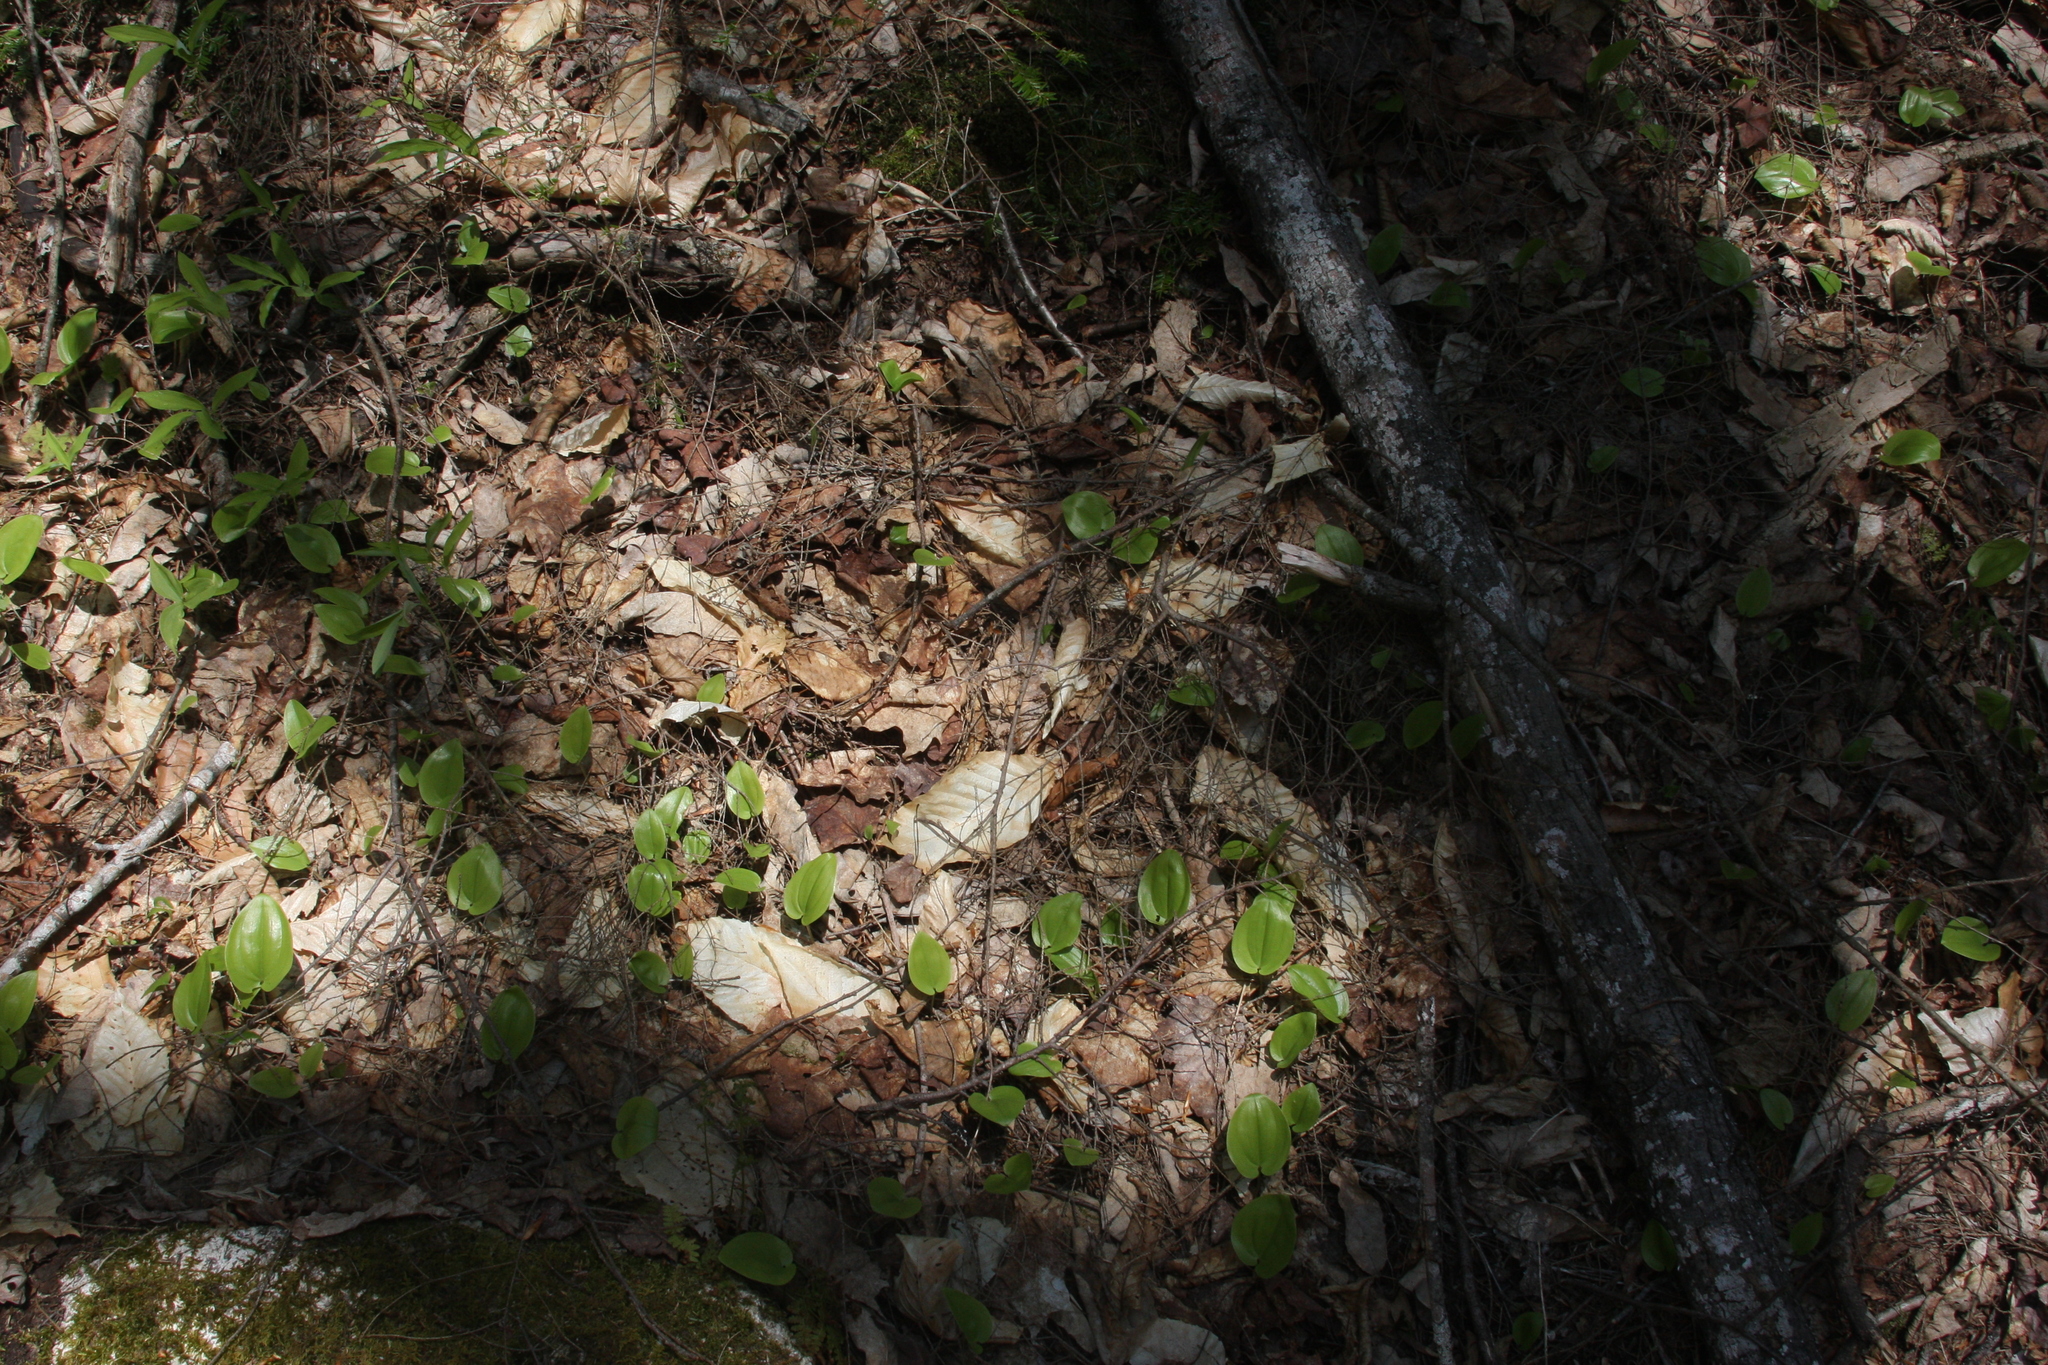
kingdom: Plantae
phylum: Tracheophyta
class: Liliopsida
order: Asparagales
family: Asparagaceae
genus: Maianthemum
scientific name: Maianthemum canadense
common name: False lily-of-the-valley
